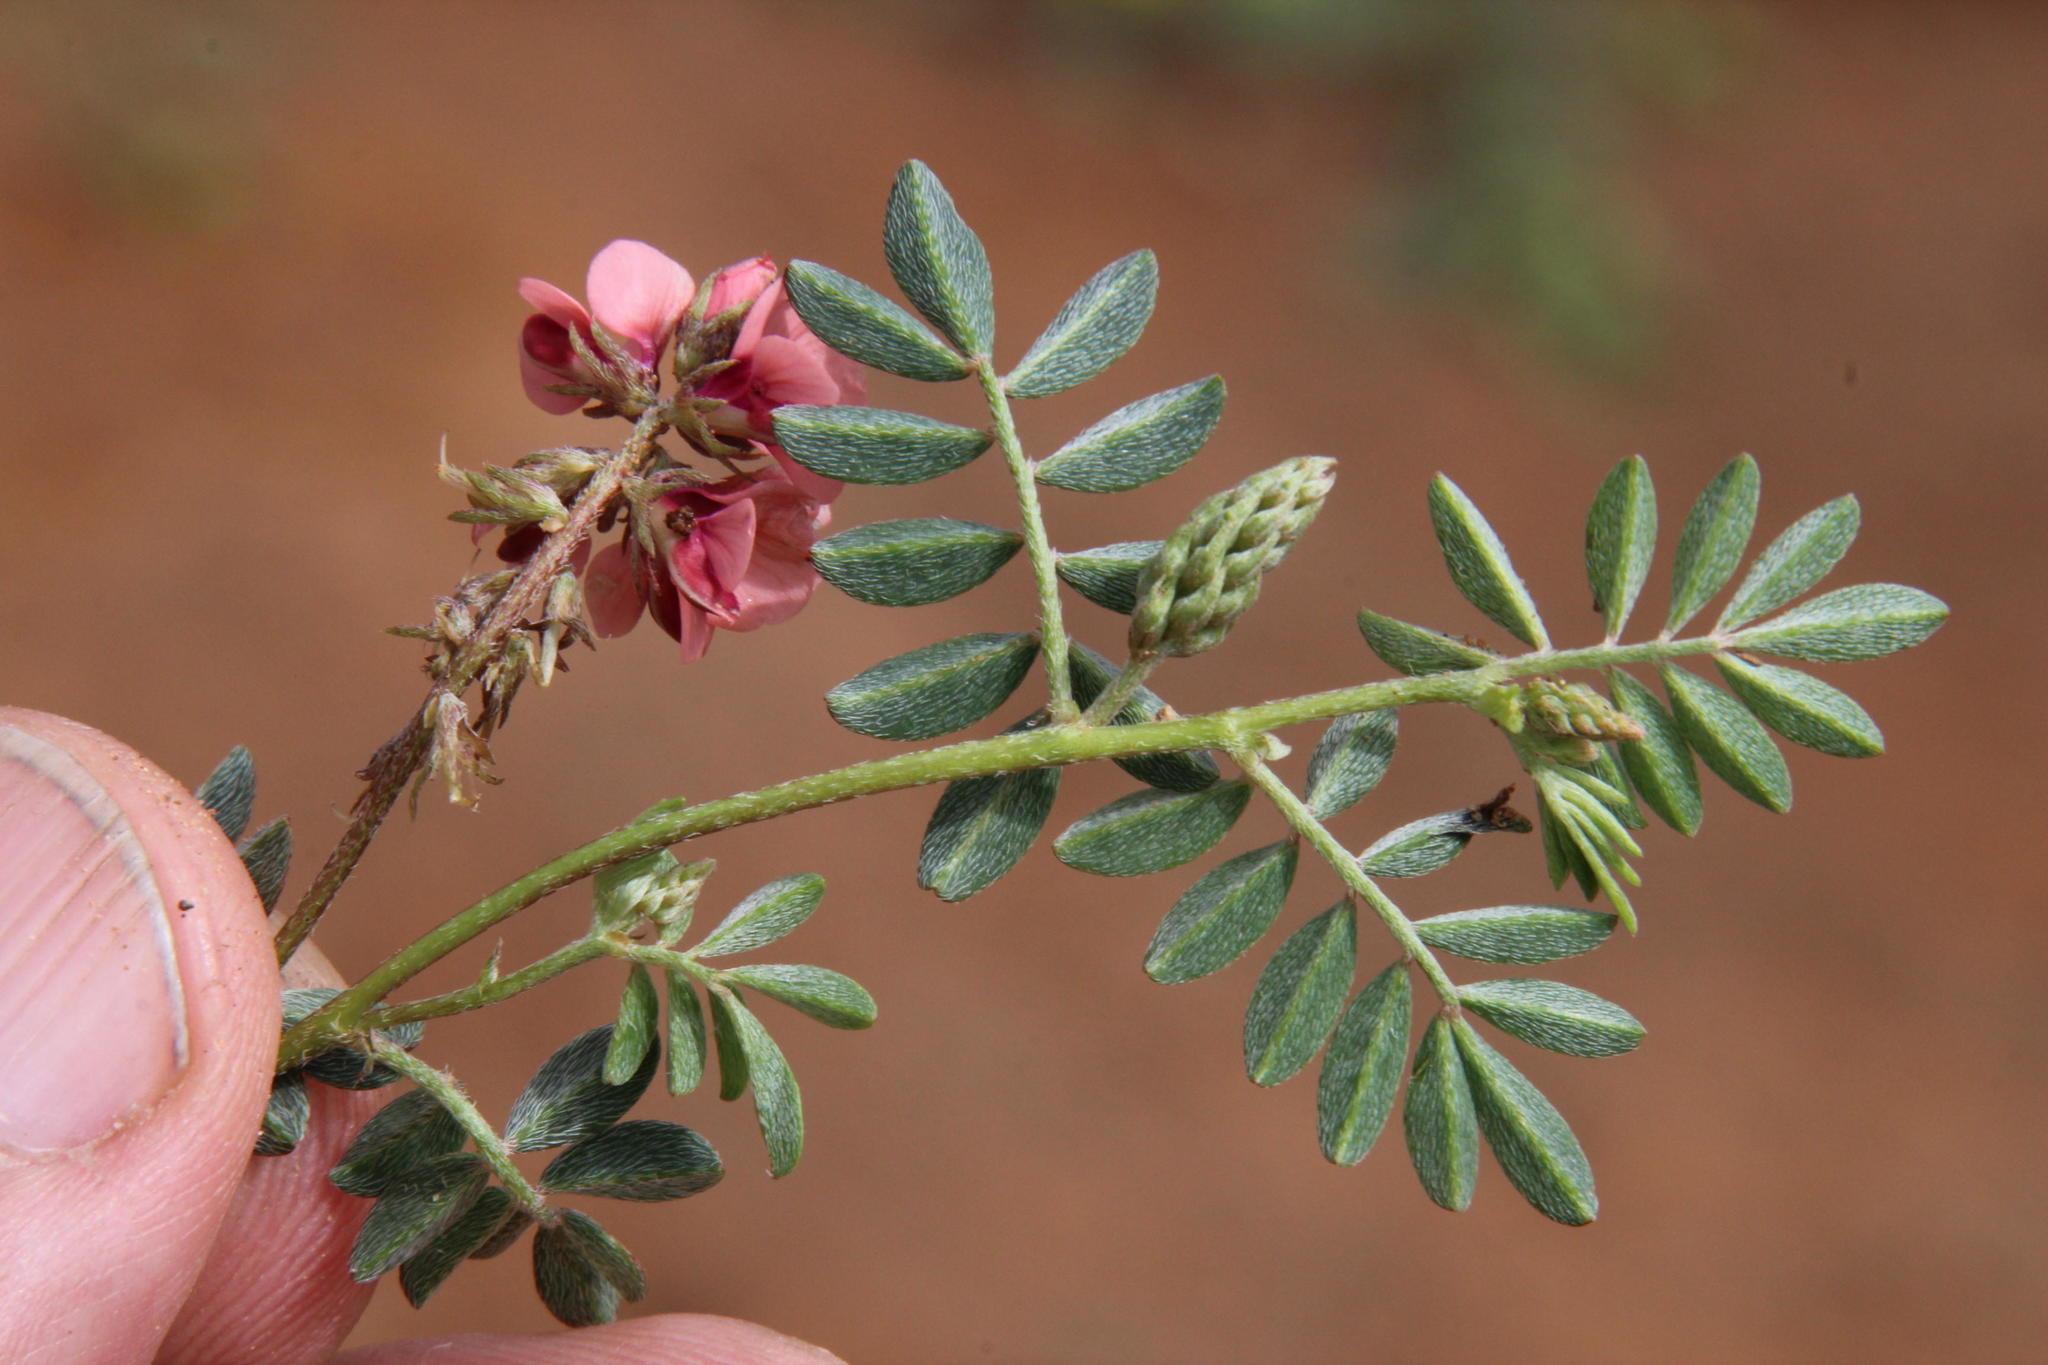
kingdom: Plantae
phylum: Tracheophyta
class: Magnoliopsida
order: Fabales
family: Fabaceae
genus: Indigofera
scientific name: Indigofera alternans
